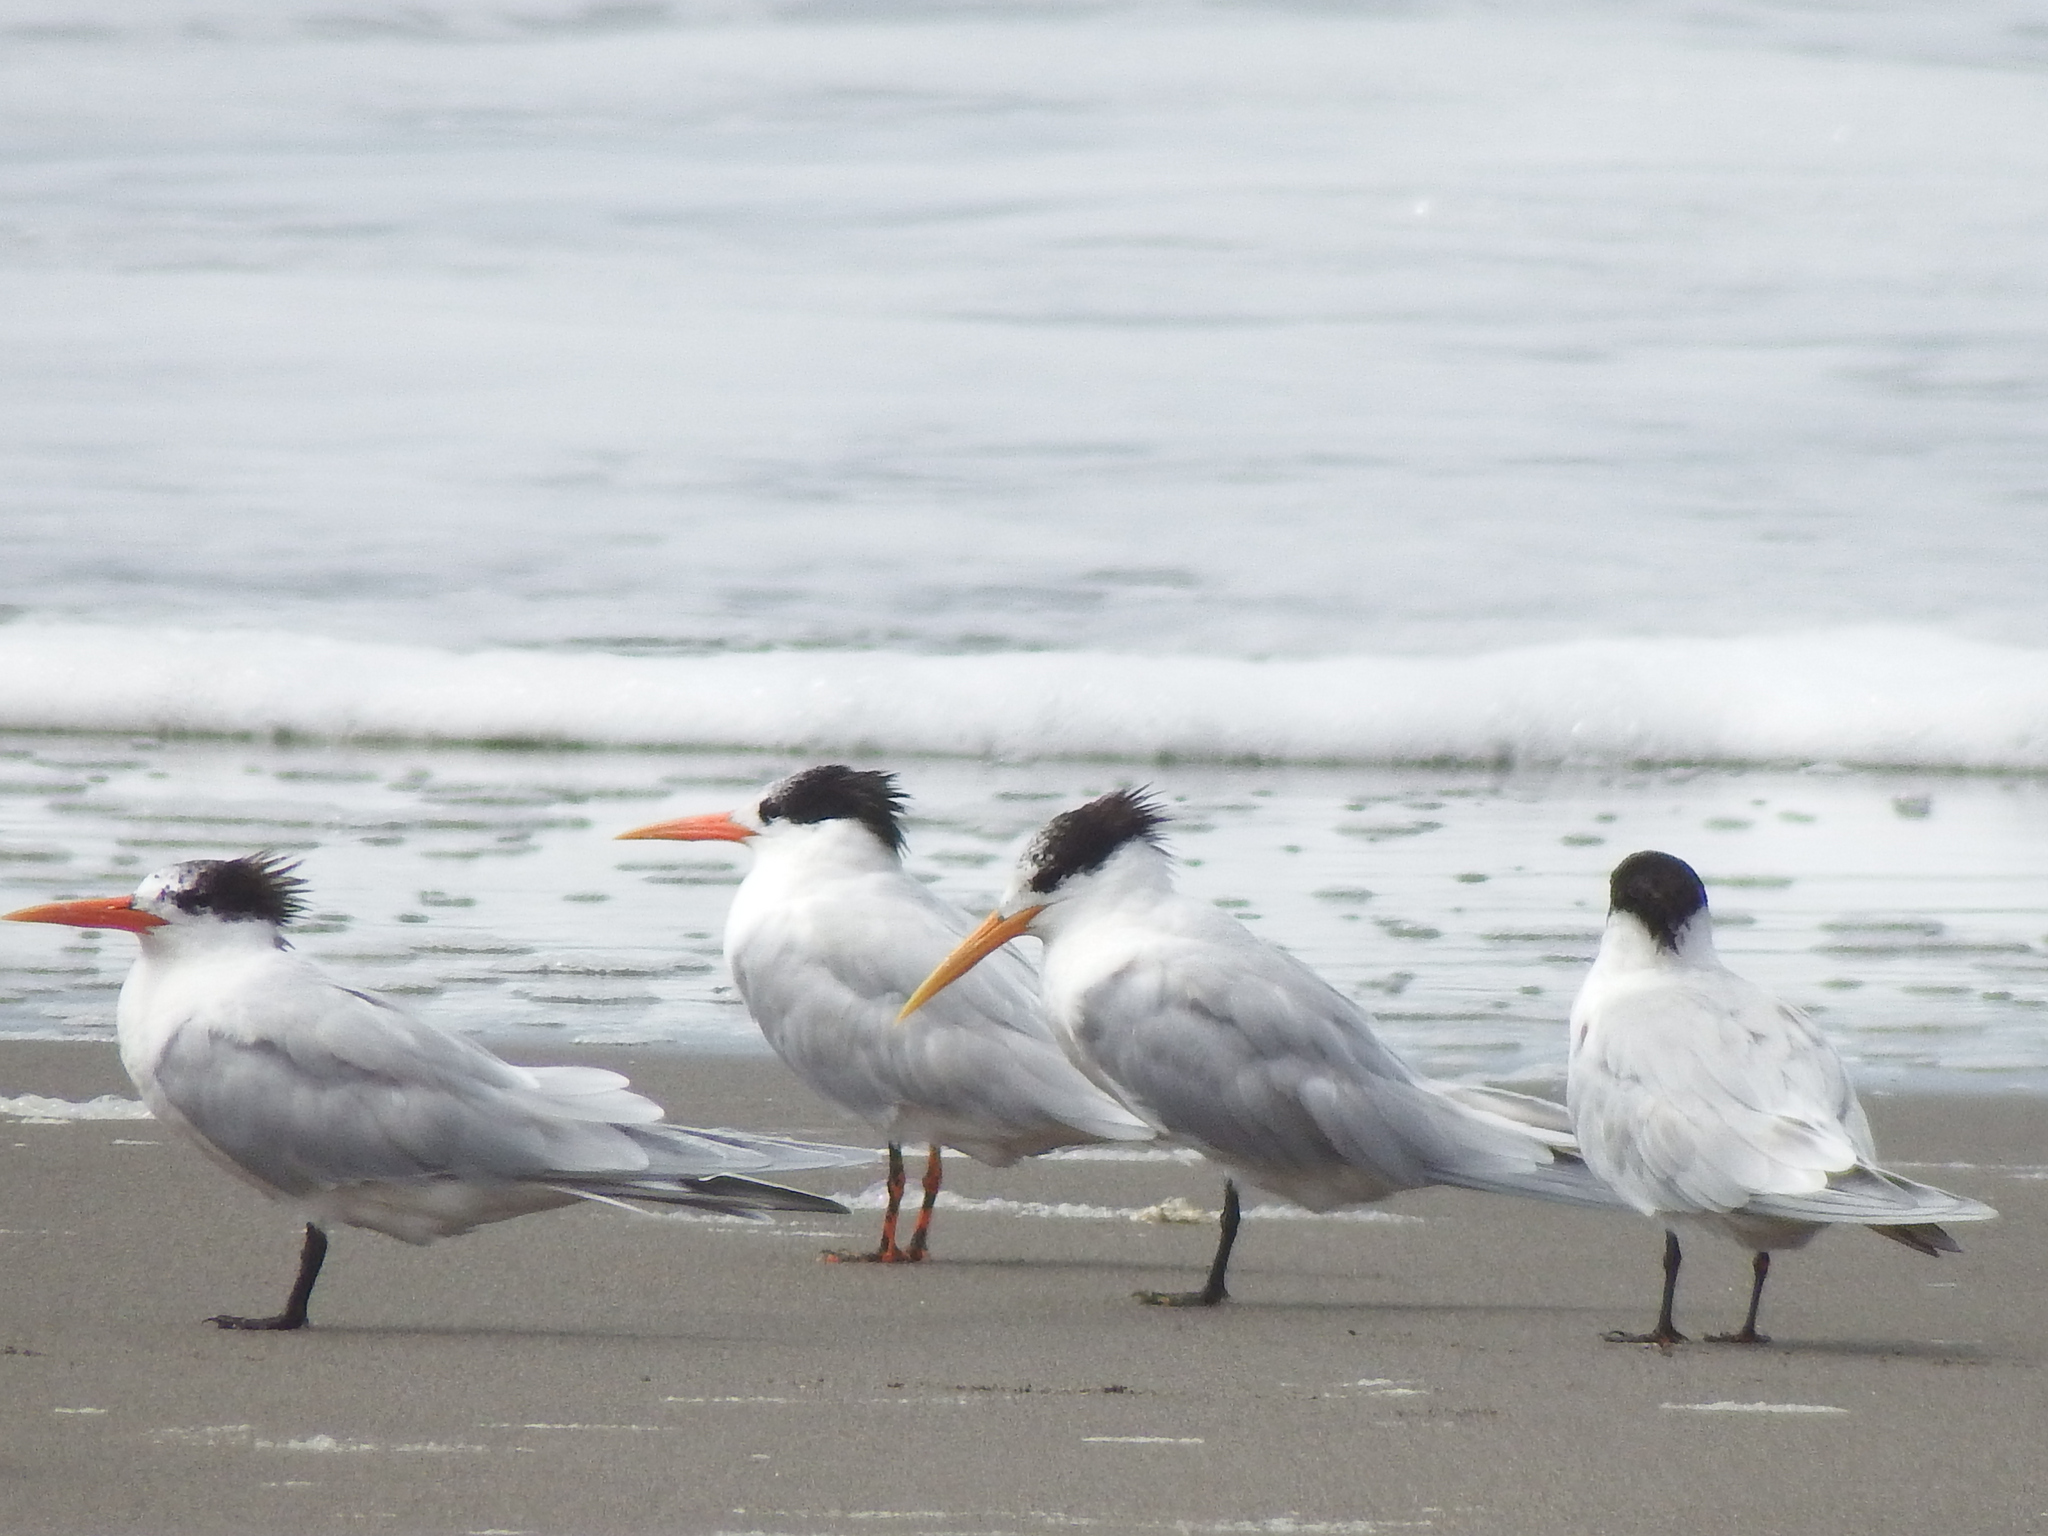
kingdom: Animalia
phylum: Chordata
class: Aves
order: Charadriiformes
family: Laridae
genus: Thalasseus
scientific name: Thalasseus elegans
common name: Elegant tern
